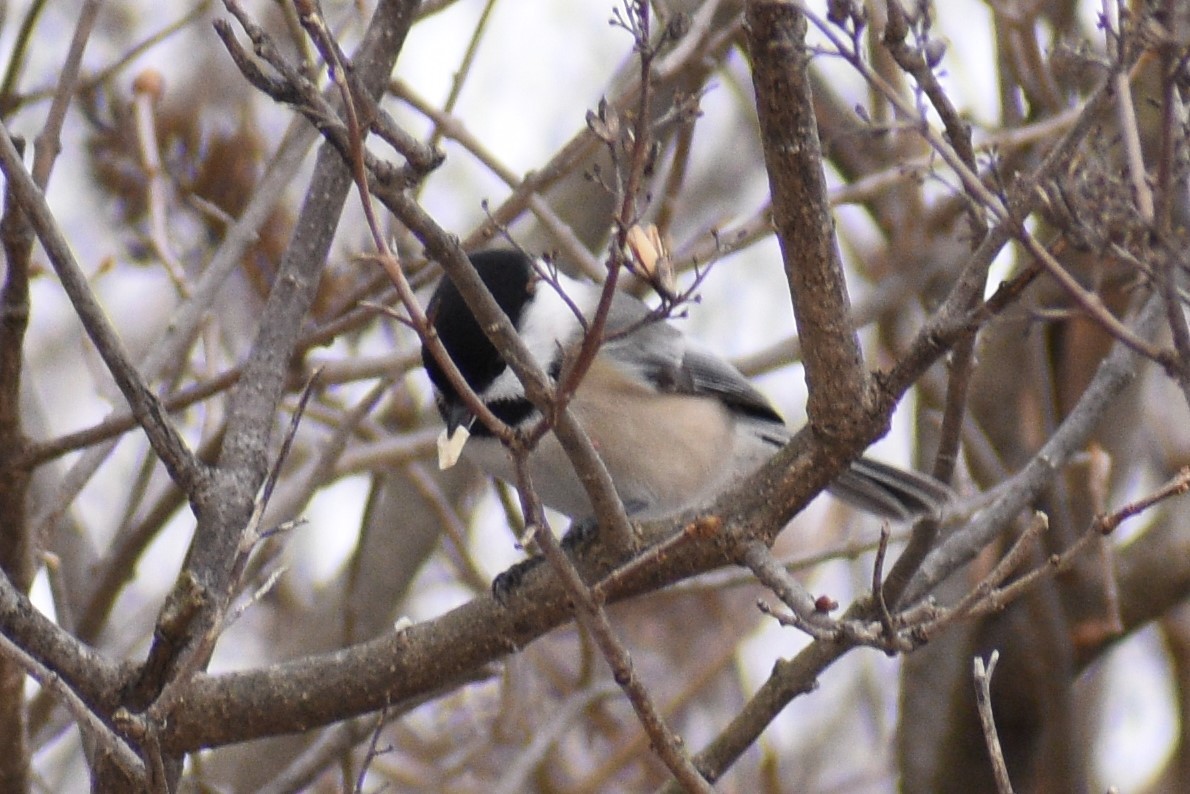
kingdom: Animalia
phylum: Chordata
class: Aves
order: Passeriformes
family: Paridae
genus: Poecile
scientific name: Poecile atricapillus
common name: Black-capped chickadee
